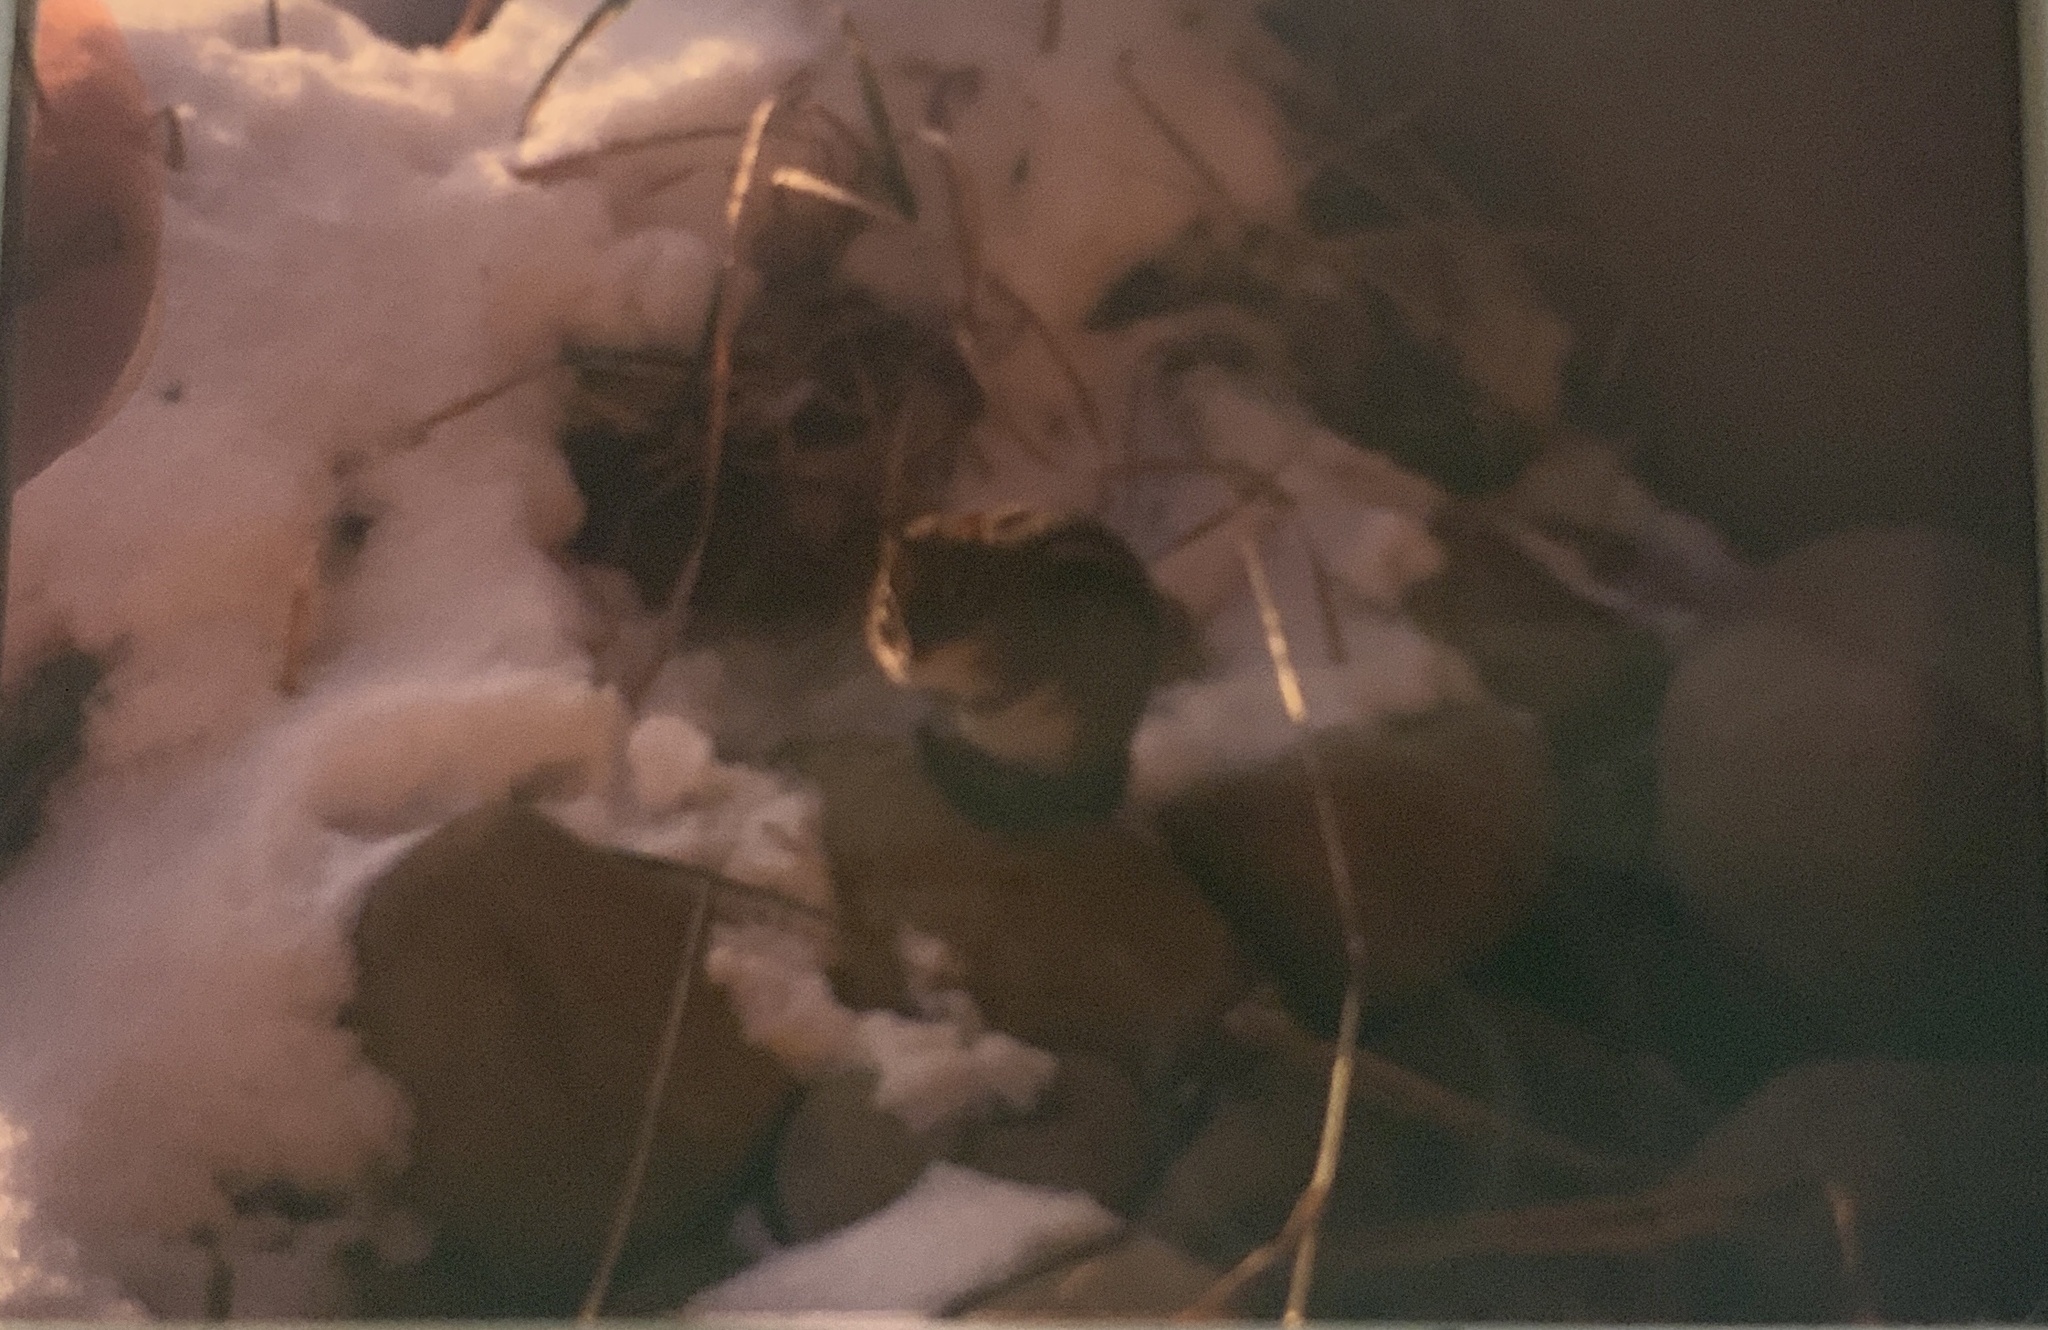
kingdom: Animalia
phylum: Chordata
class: Mammalia
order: Rodentia
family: Sciuridae
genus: Tamias
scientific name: Tamias striatus
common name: Eastern chipmunk
